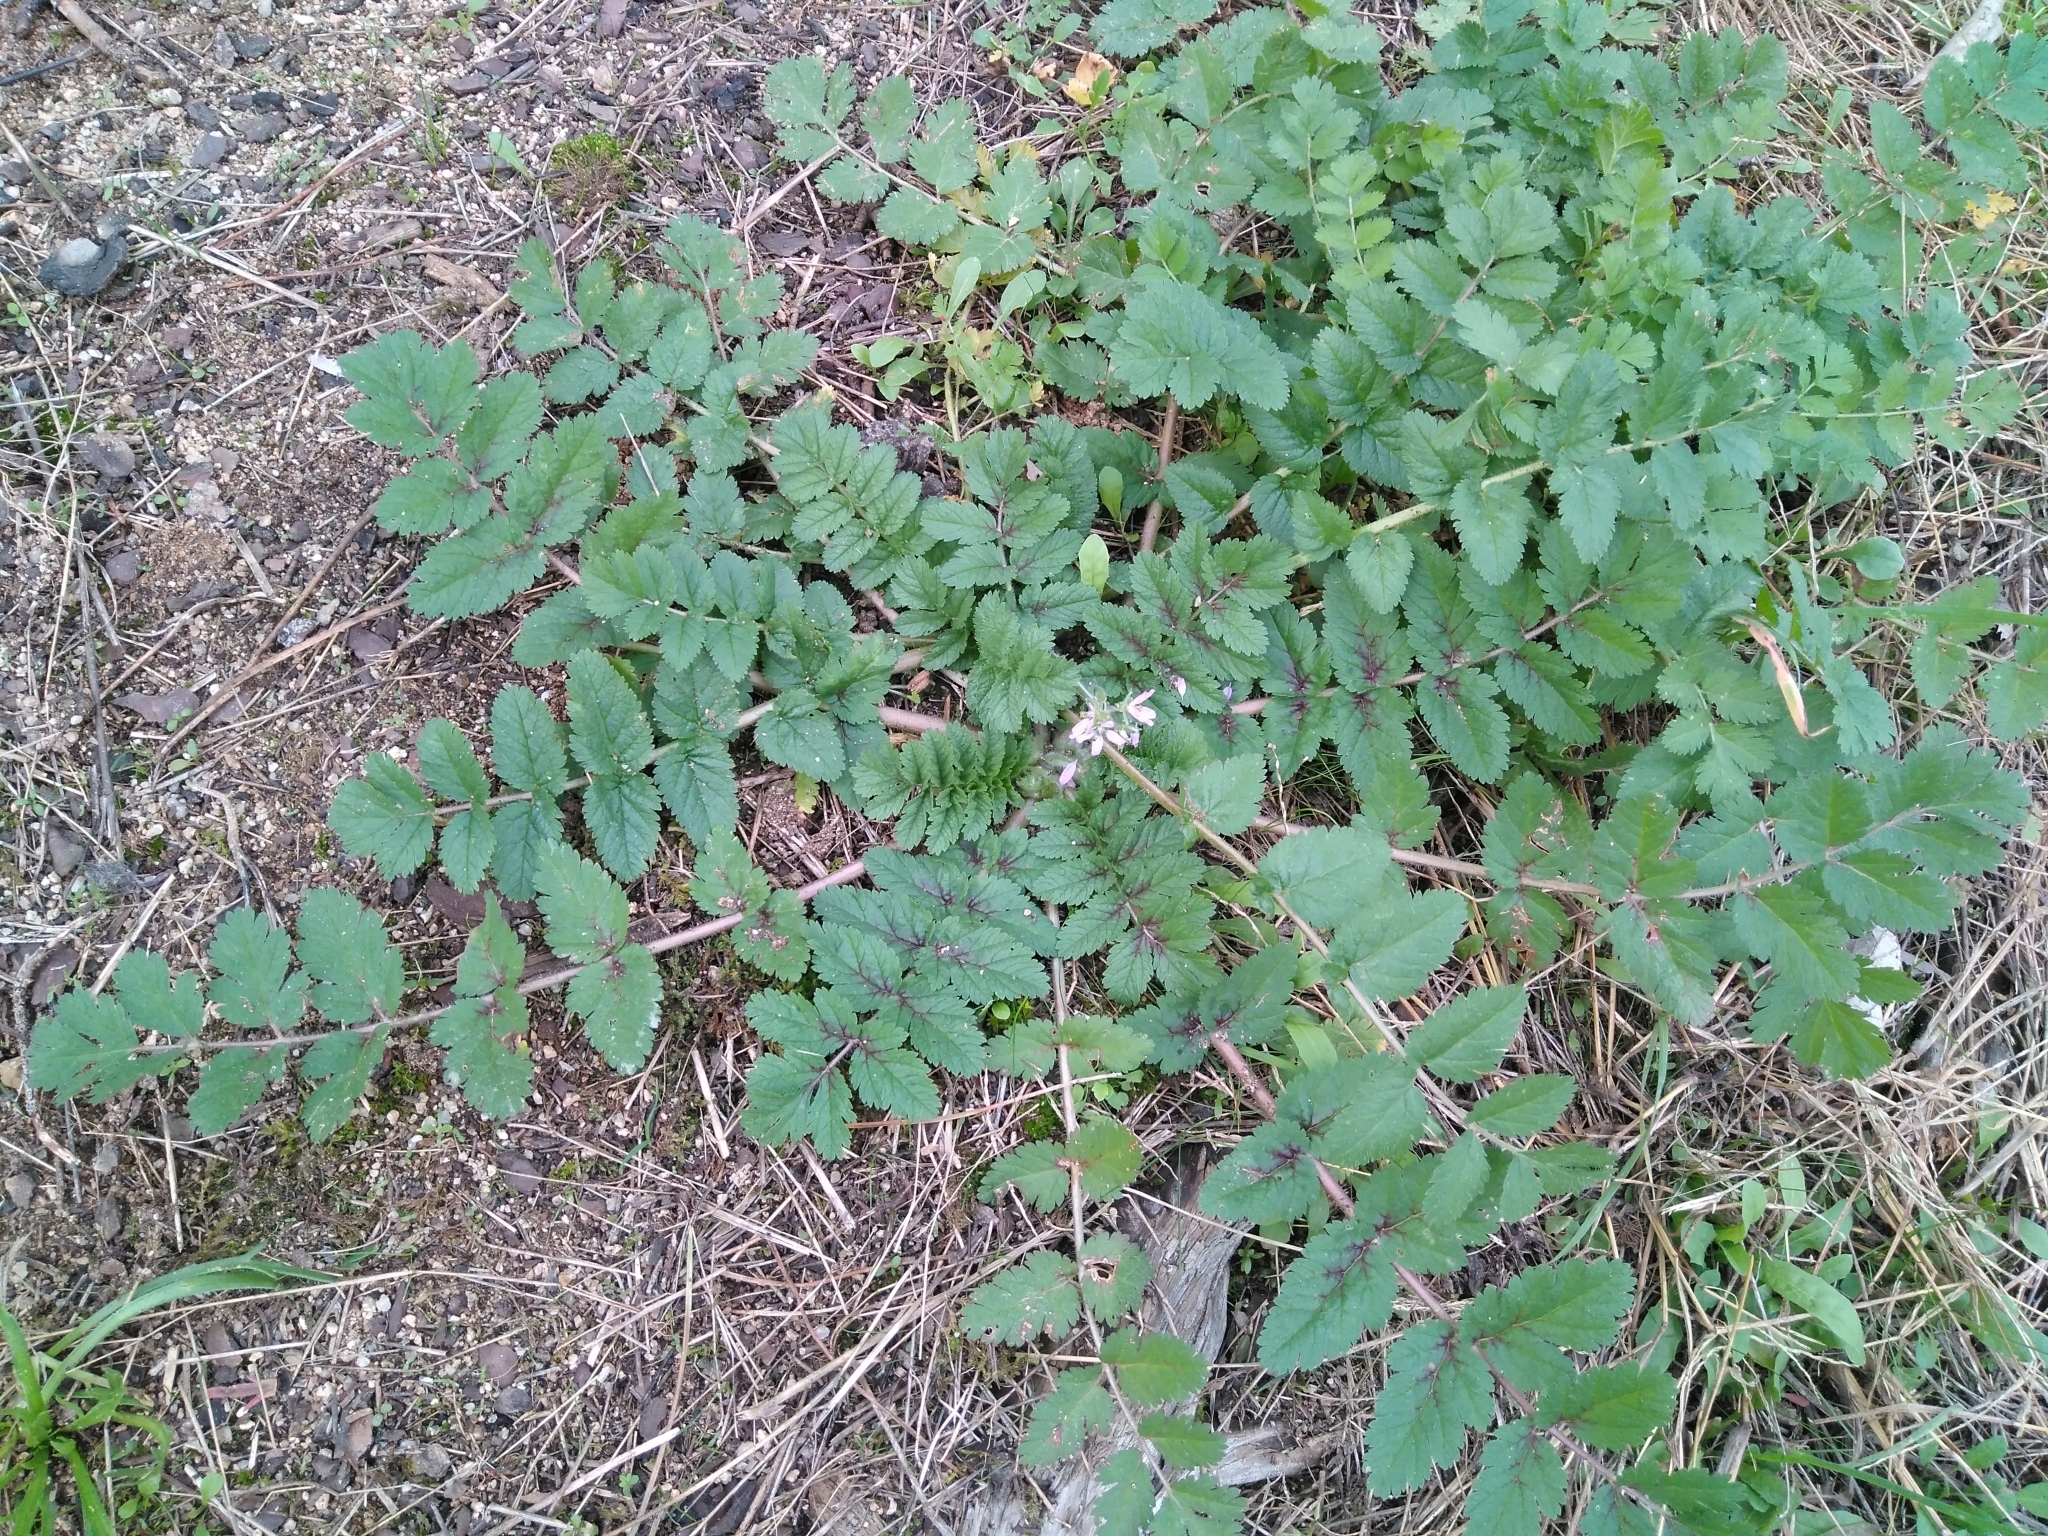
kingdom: Plantae
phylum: Tracheophyta
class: Magnoliopsida
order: Geraniales
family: Geraniaceae
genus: Erodium
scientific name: Erodium moschatum
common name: Musk stork's-bill
